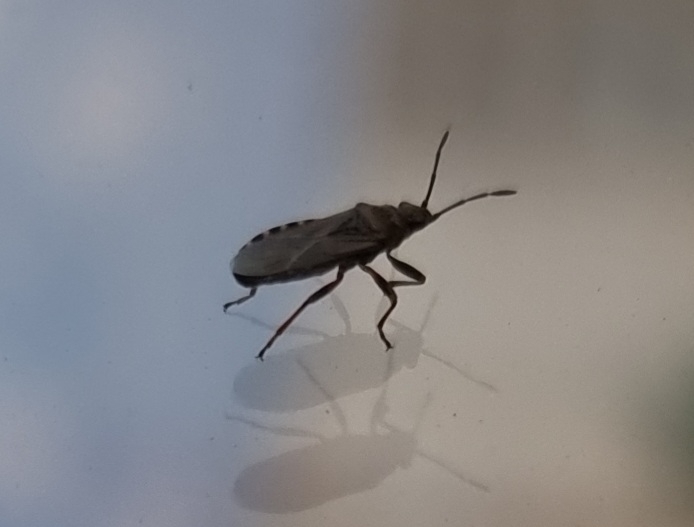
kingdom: Animalia
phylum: Arthropoda
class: Insecta
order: Hemiptera
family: Lygaeidae
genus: Arocatus
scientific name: Arocatus melanocephalus
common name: Lygaeid bug
